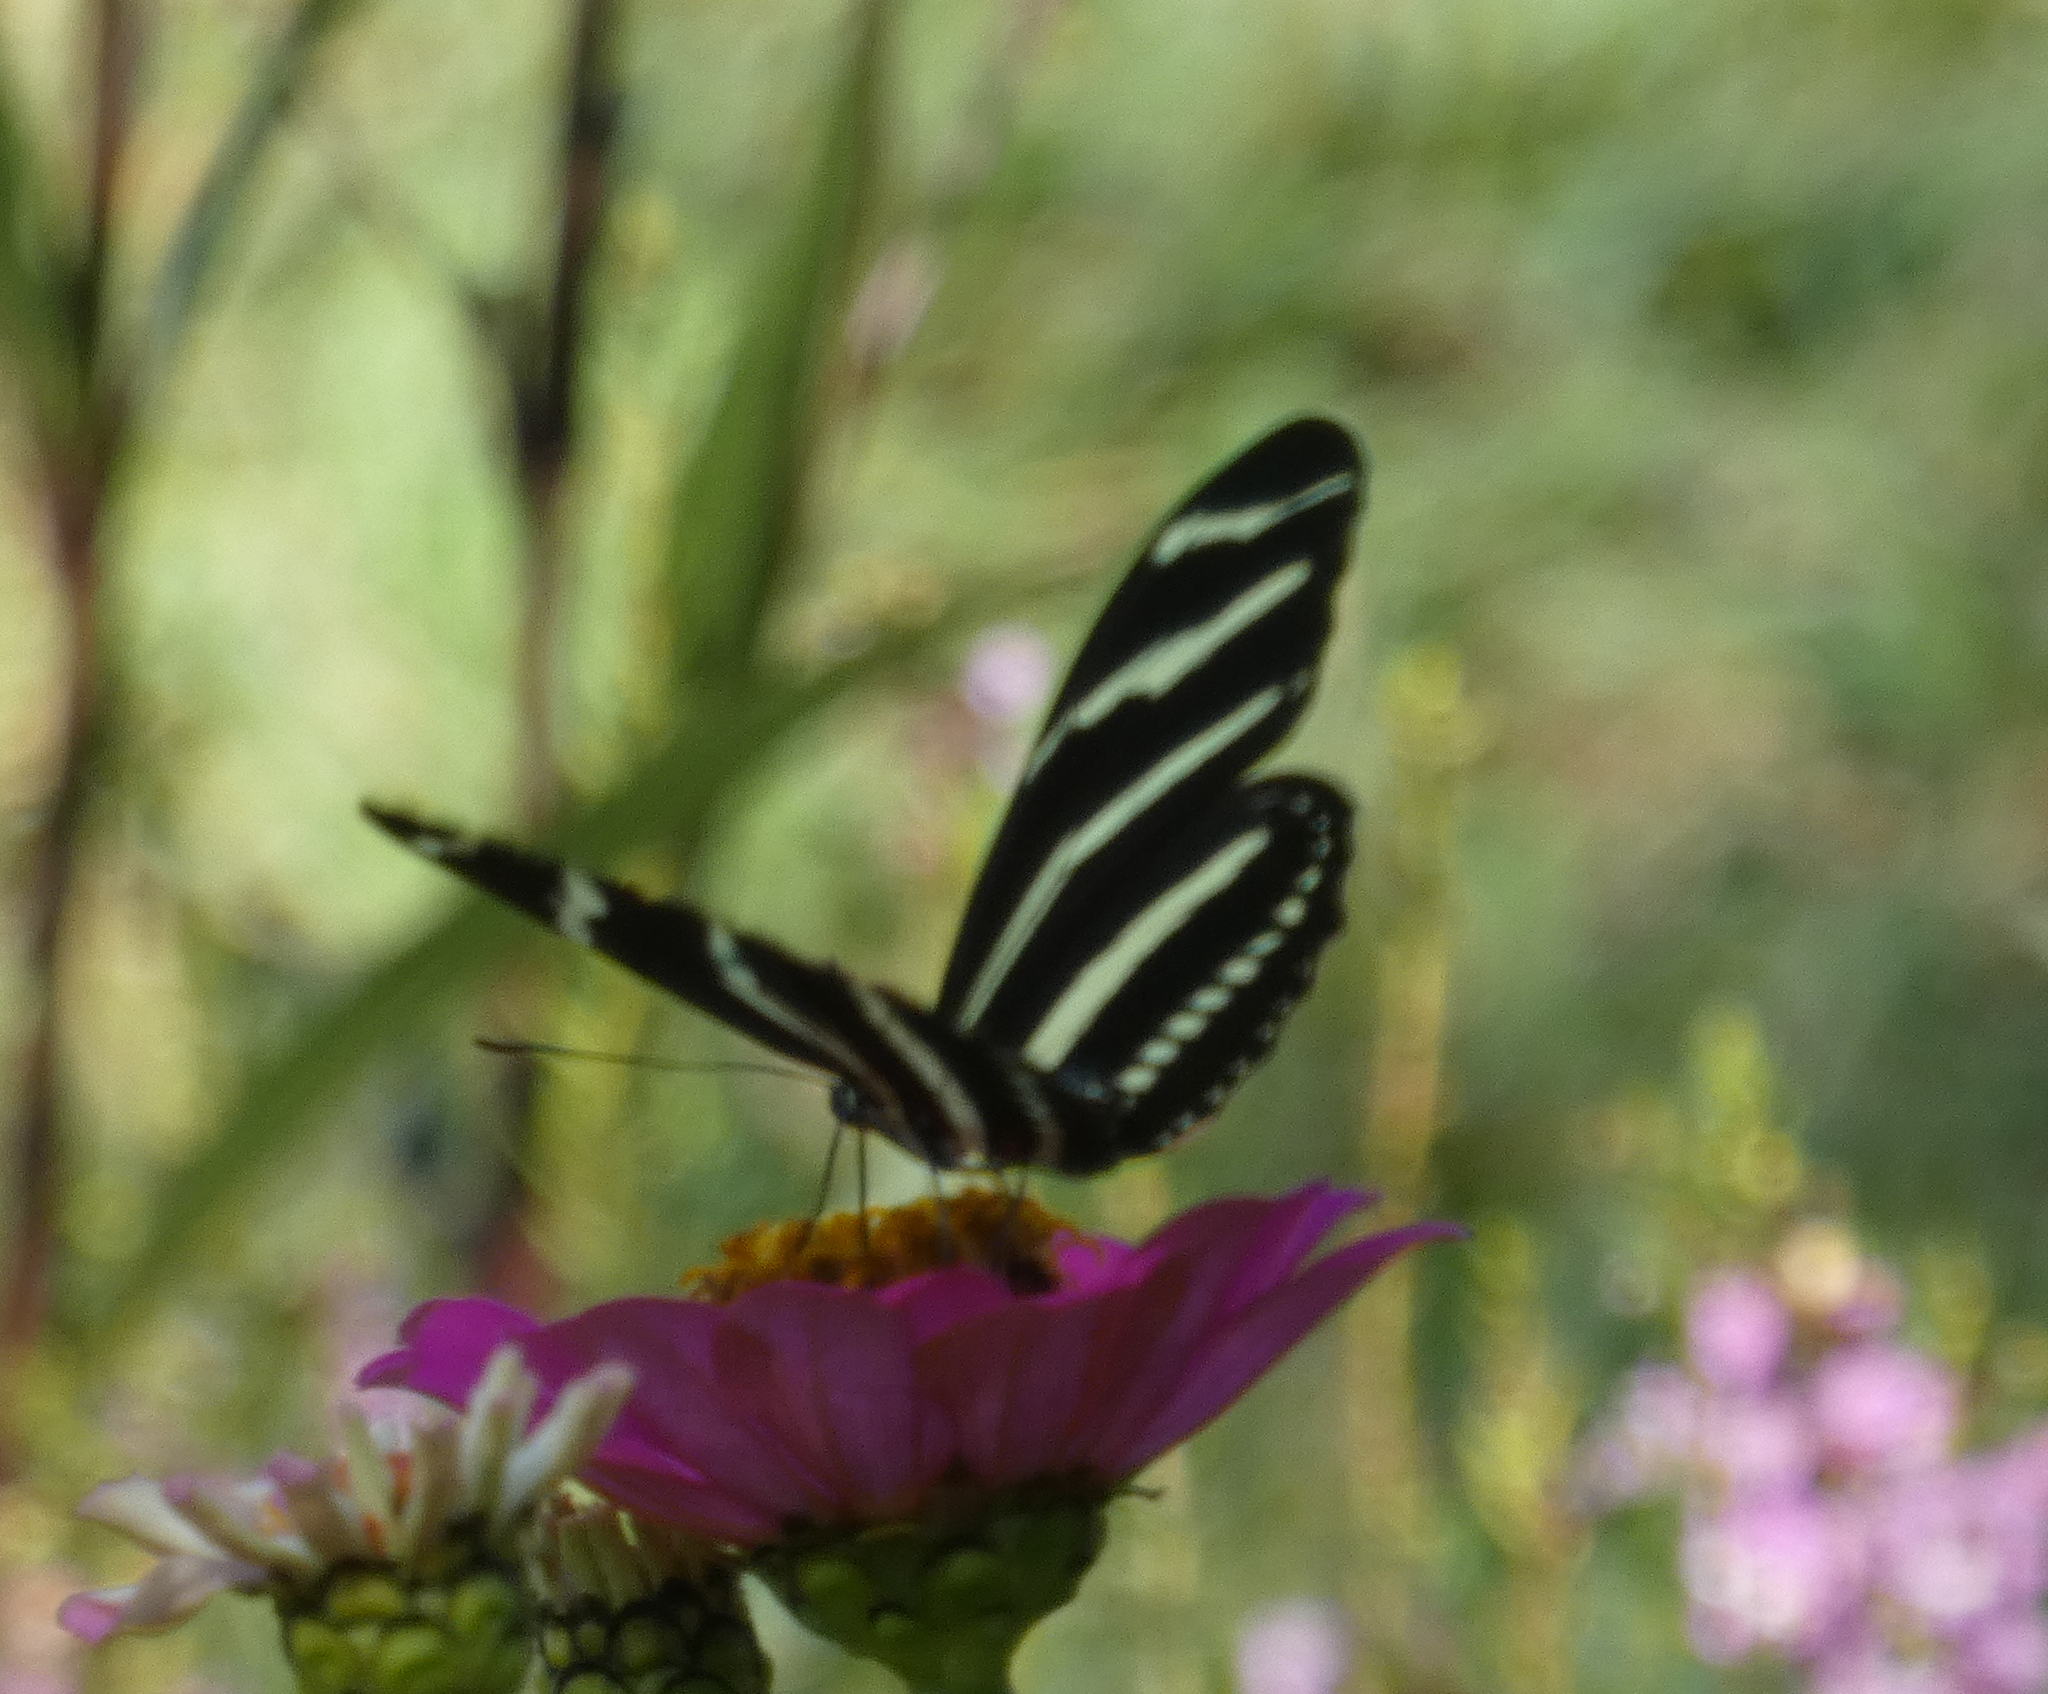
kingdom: Animalia
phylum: Arthropoda
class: Insecta
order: Lepidoptera
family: Nymphalidae
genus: Heliconius
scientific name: Heliconius charithonia
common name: Zebra long wing
